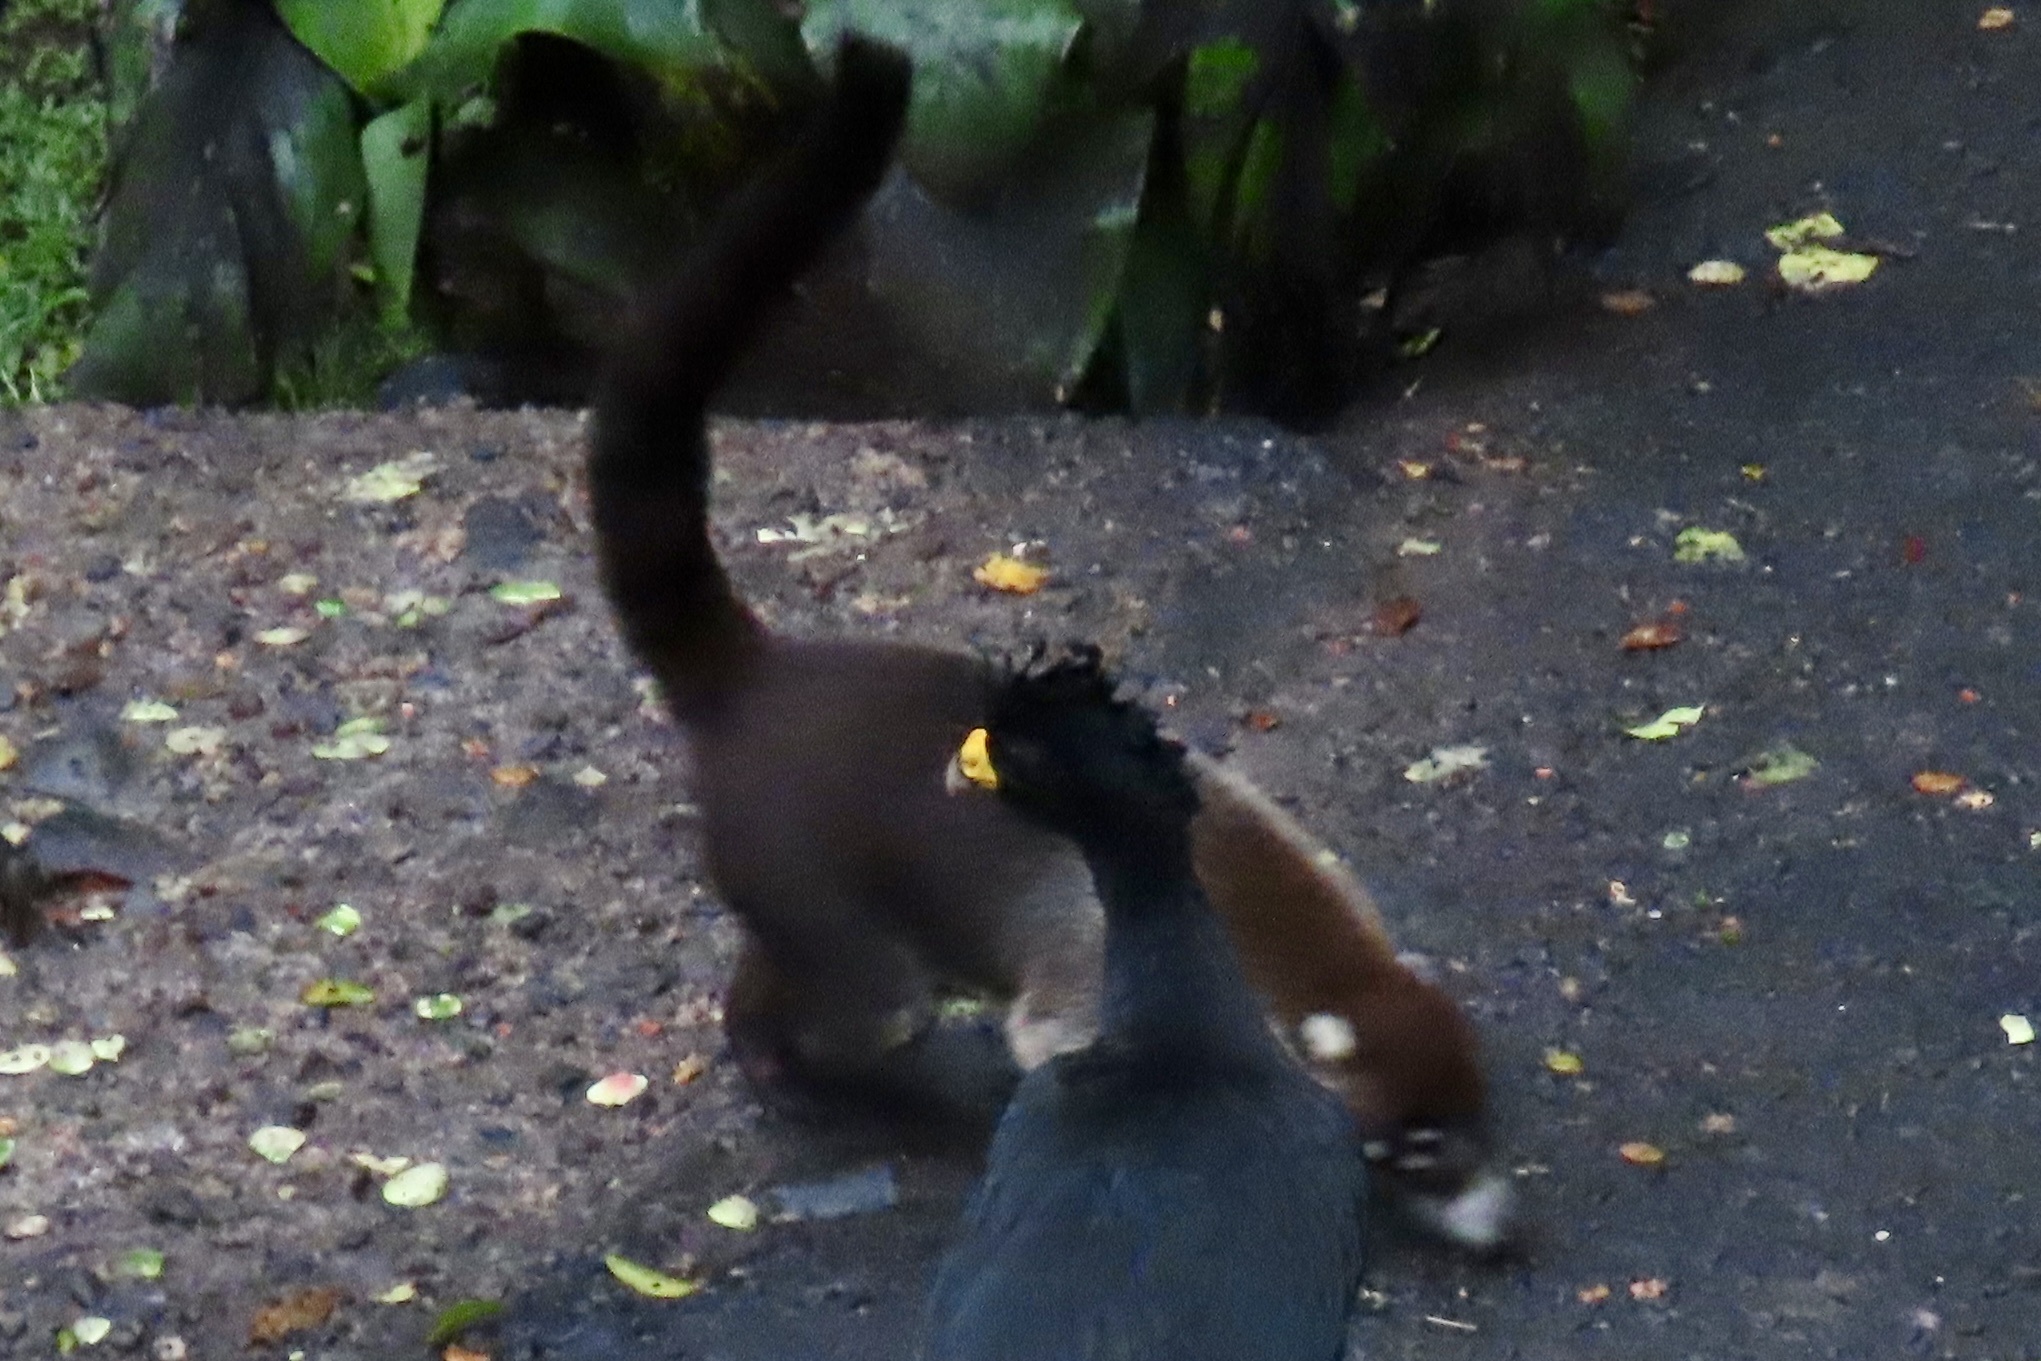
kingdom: Animalia
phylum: Chordata
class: Mammalia
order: Carnivora
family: Procyonidae
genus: Nasua
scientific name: Nasua narica
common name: White-nosed coati
